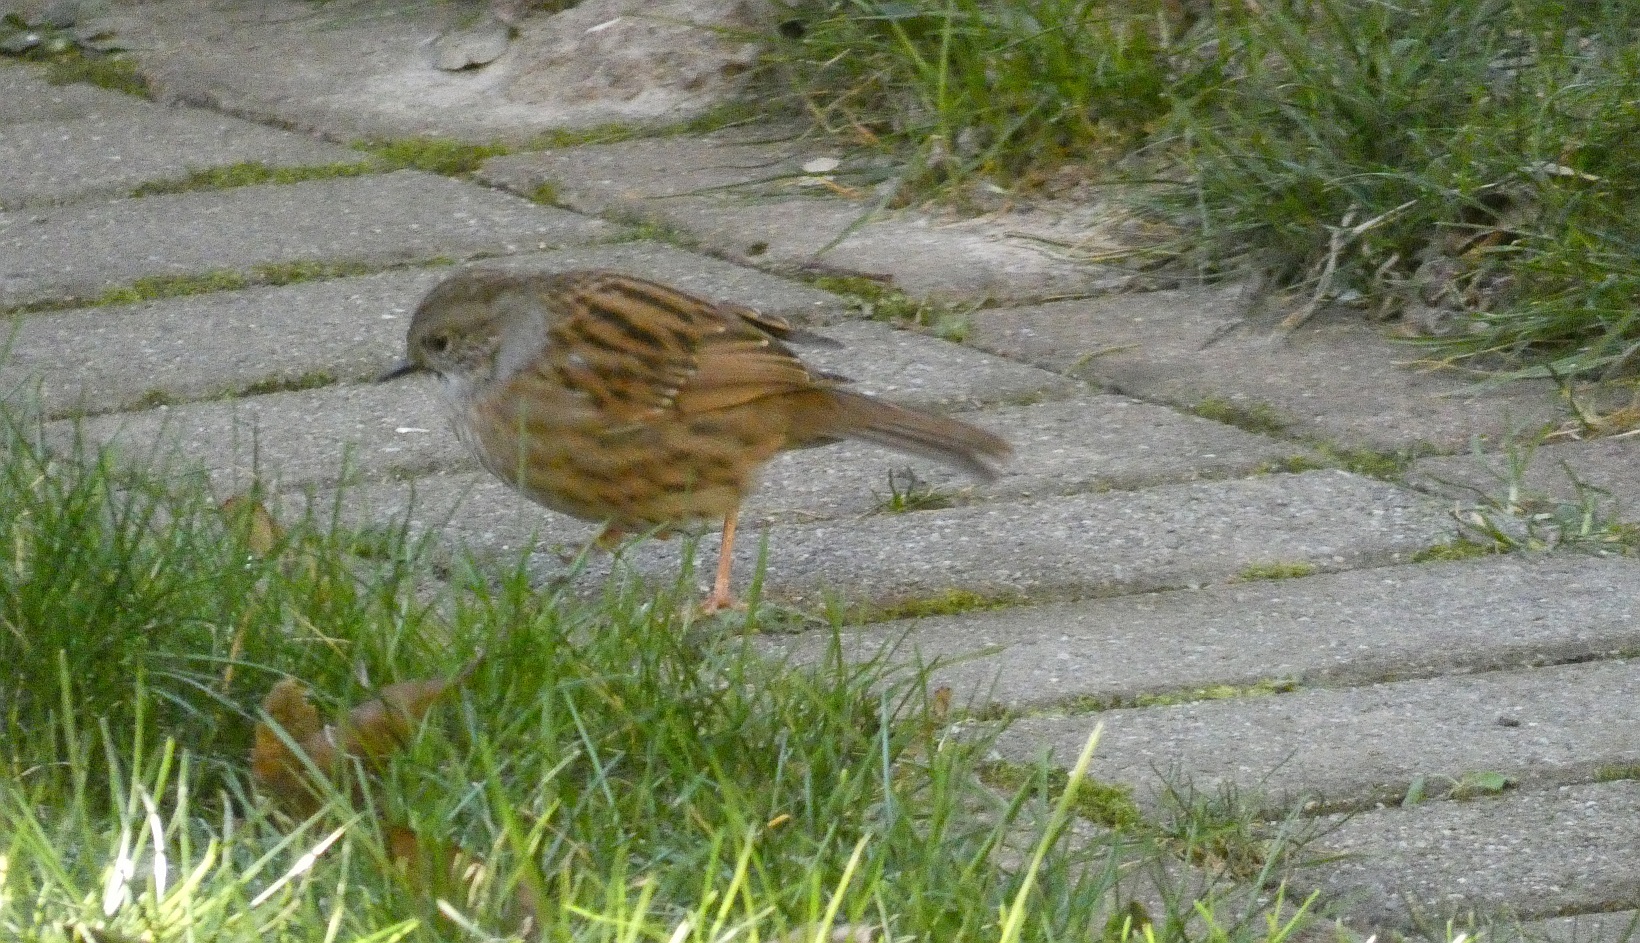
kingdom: Animalia
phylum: Chordata
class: Aves
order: Passeriformes
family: Prunellidae
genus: Prunella
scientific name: Prunella modularis
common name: Dunnock
